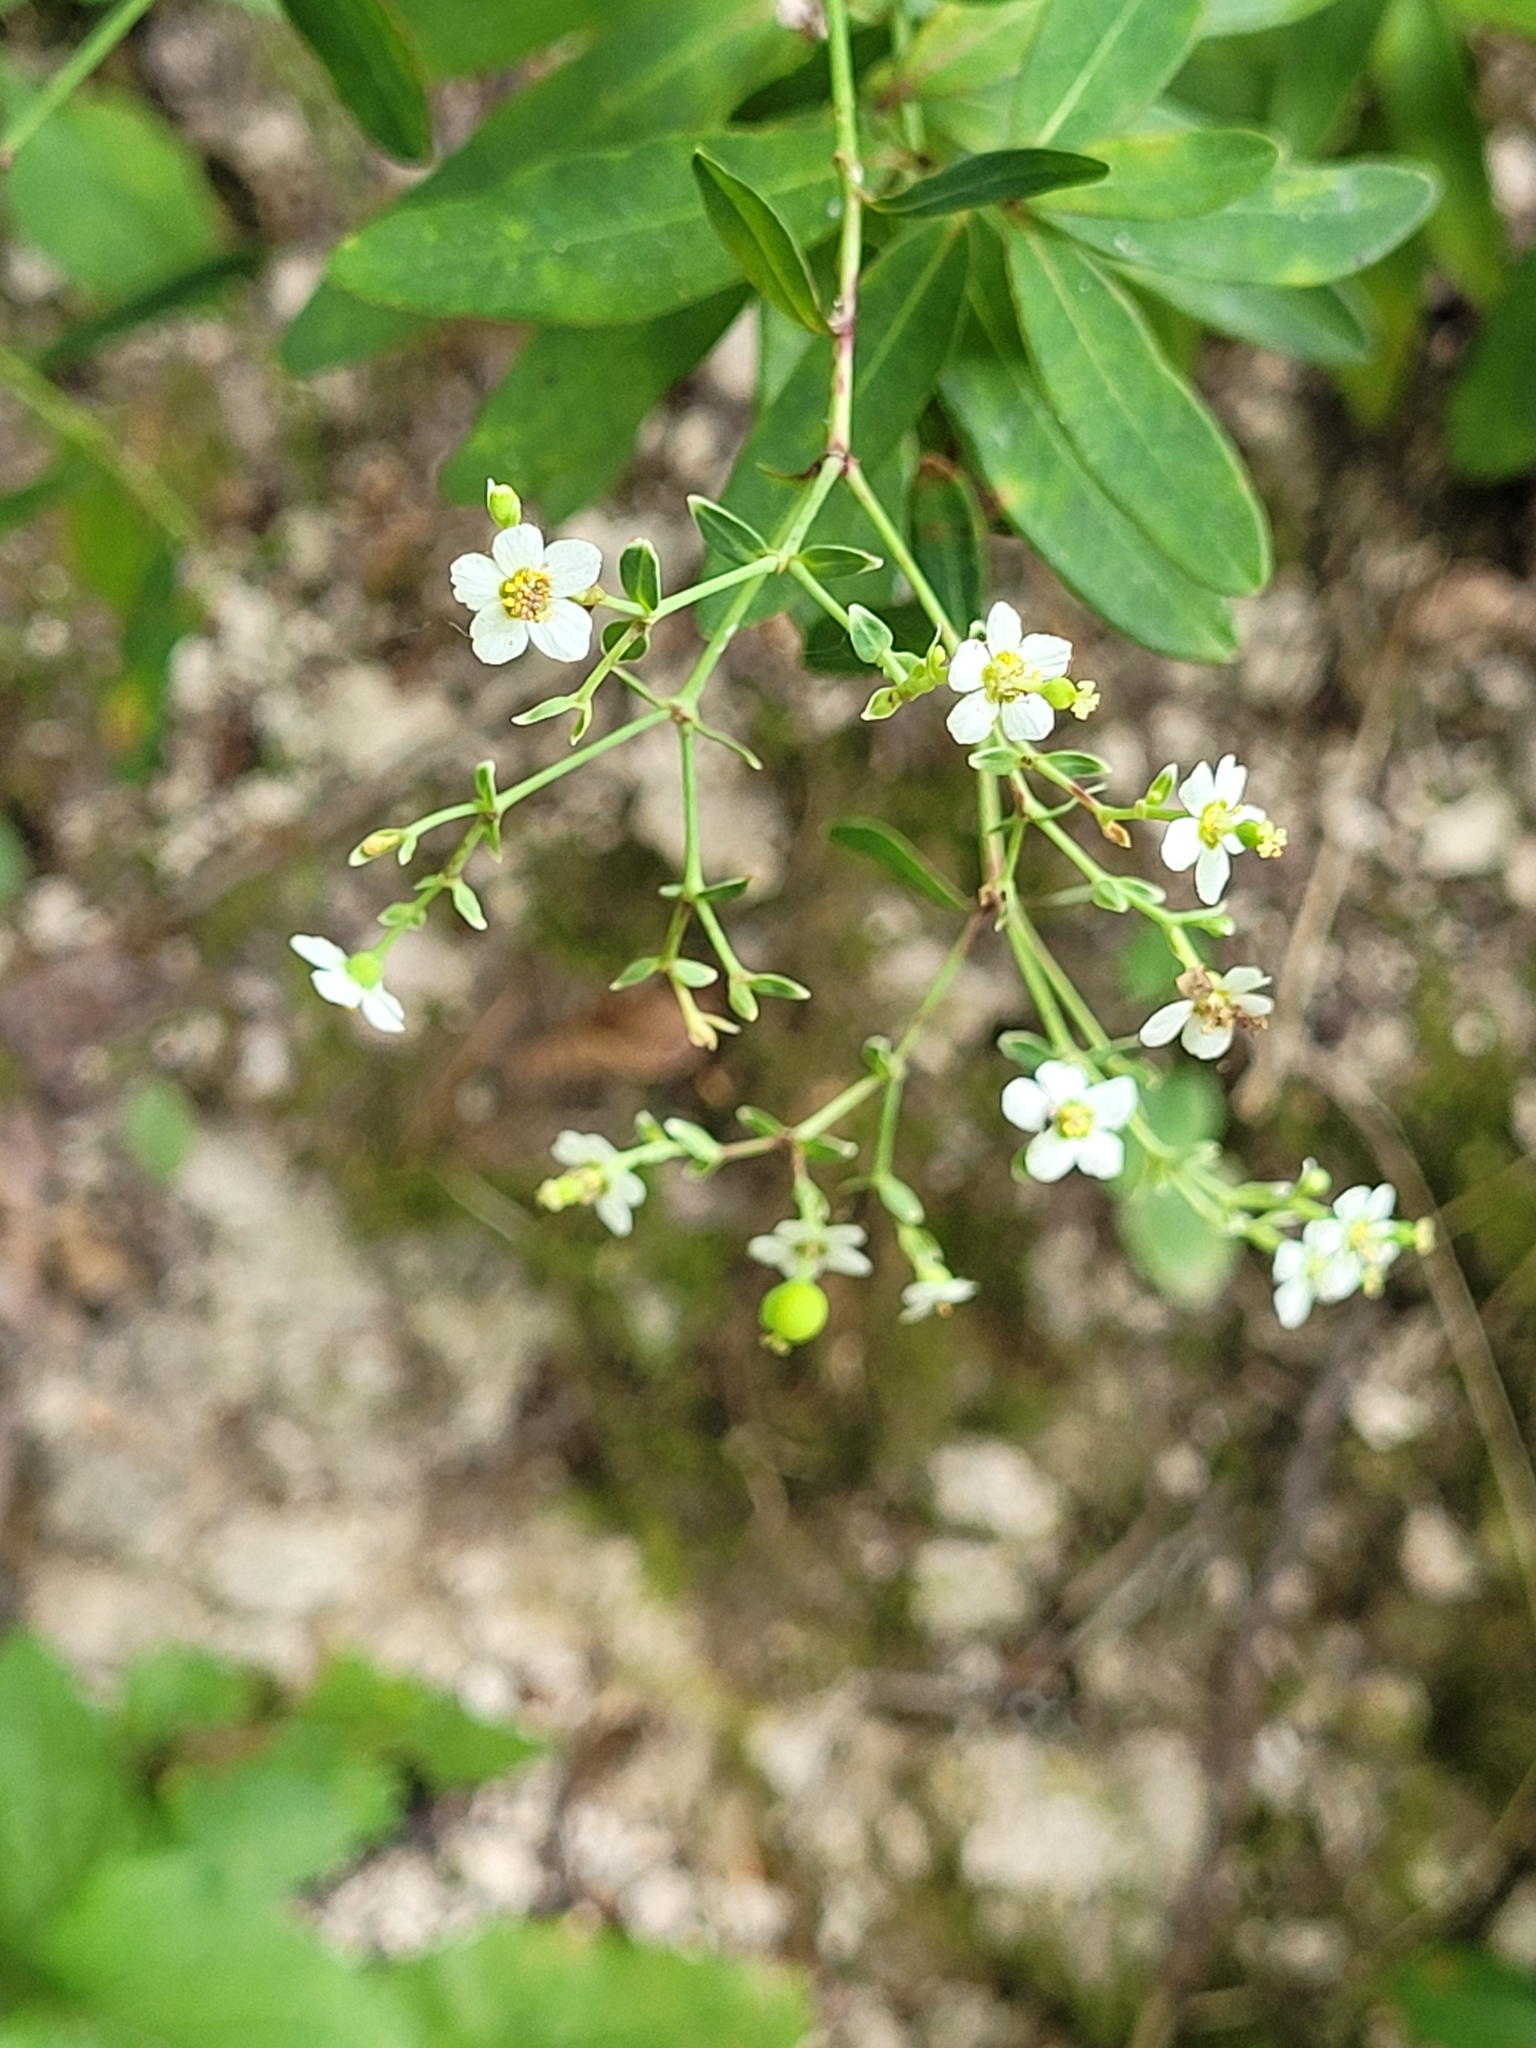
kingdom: Plantae
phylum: Tracheophyta
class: Magnoliopsida
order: Malpighiales
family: Euphorbiaceae
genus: Euphorbia
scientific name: Euphorbia corollata
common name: Flowering spurge
